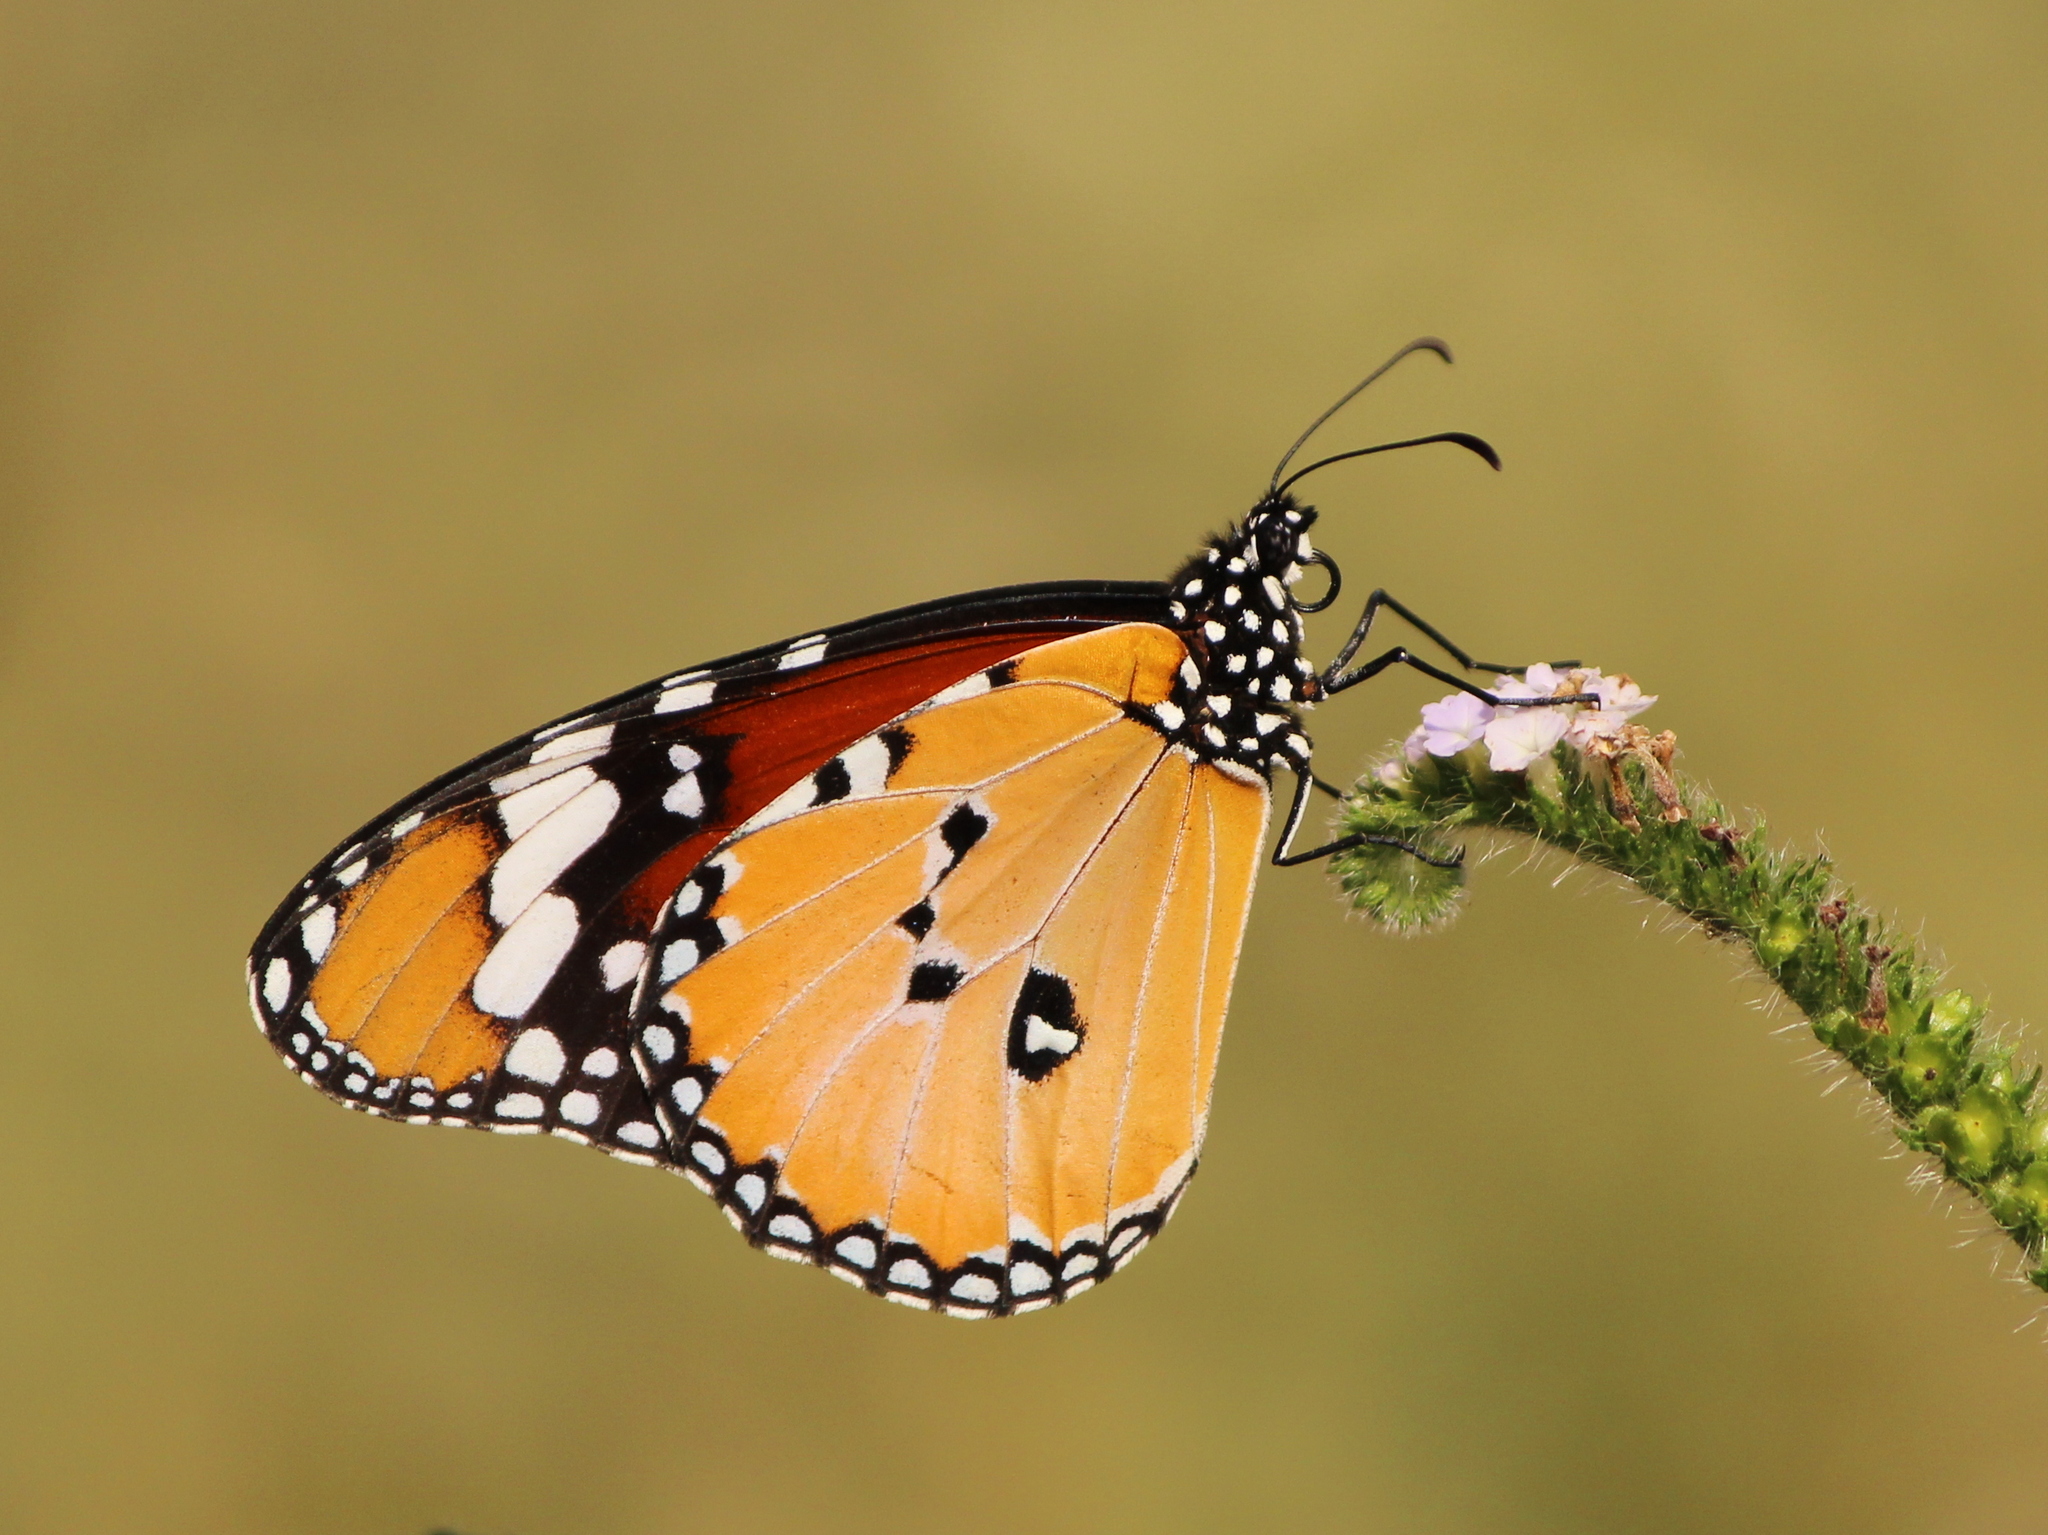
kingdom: Animalia
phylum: Arthropoda
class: Insecta
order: Lepidoptera
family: Nymphalidae
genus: Danaus
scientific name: Danaus chrysippus
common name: Plain tiger
